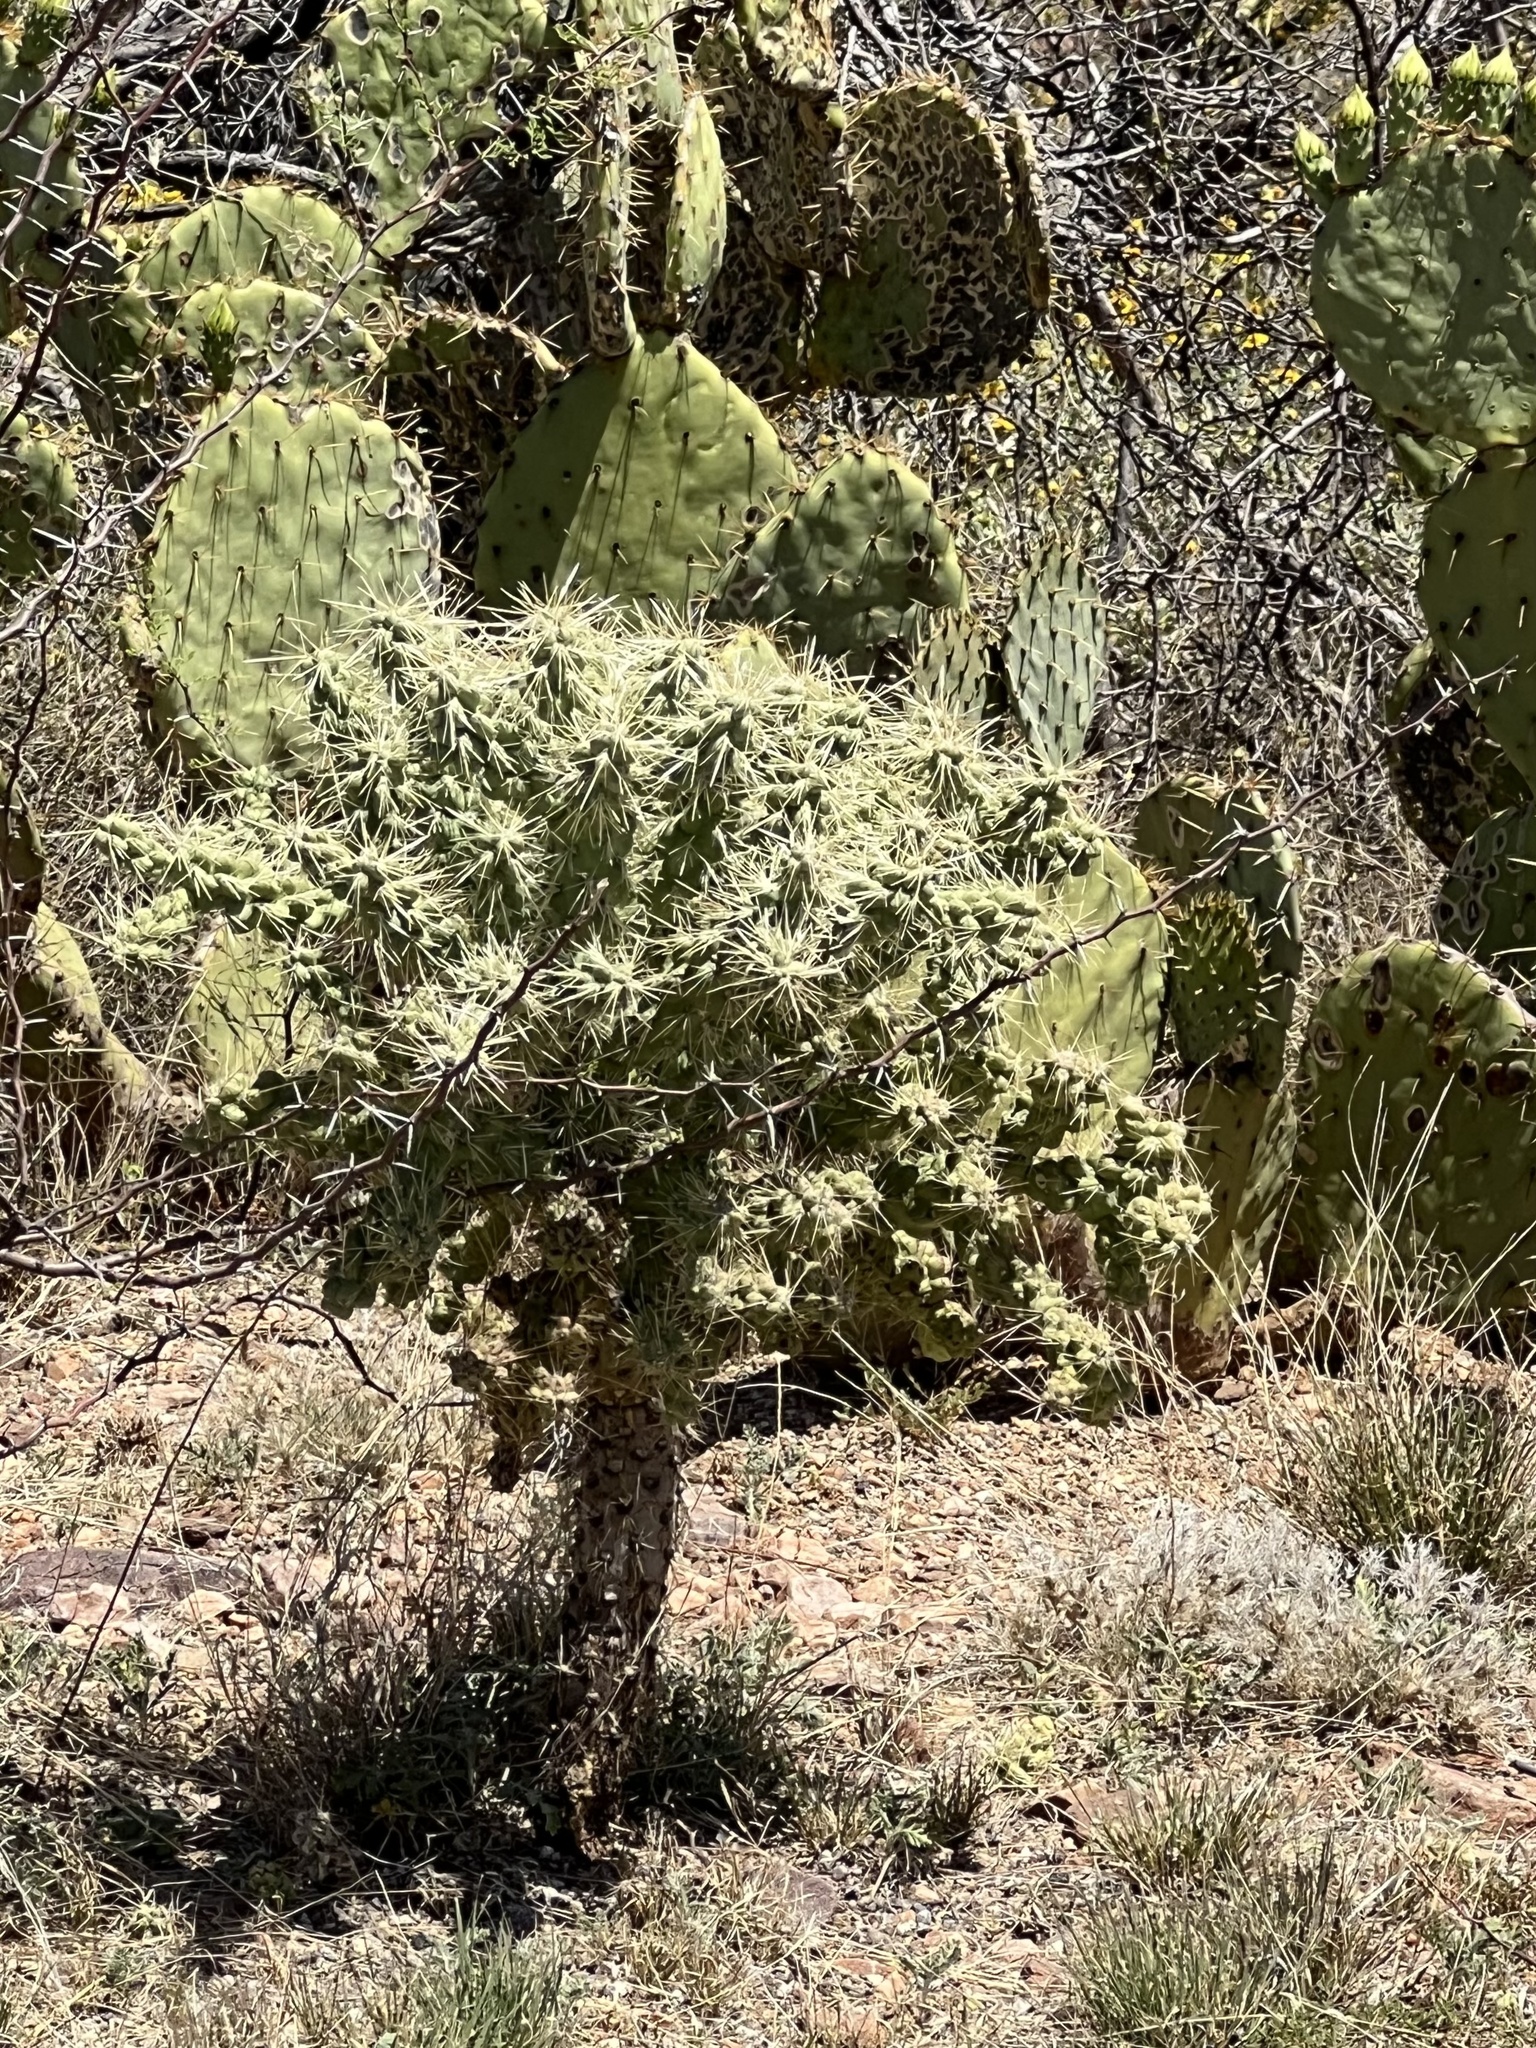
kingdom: Plantae
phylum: Tracheophyta
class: Magnoliopsida
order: Caryophyllales
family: Cactaceae
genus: Cylindropuntia
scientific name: Cylindropuntia fulgida
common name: Jumping cholla
